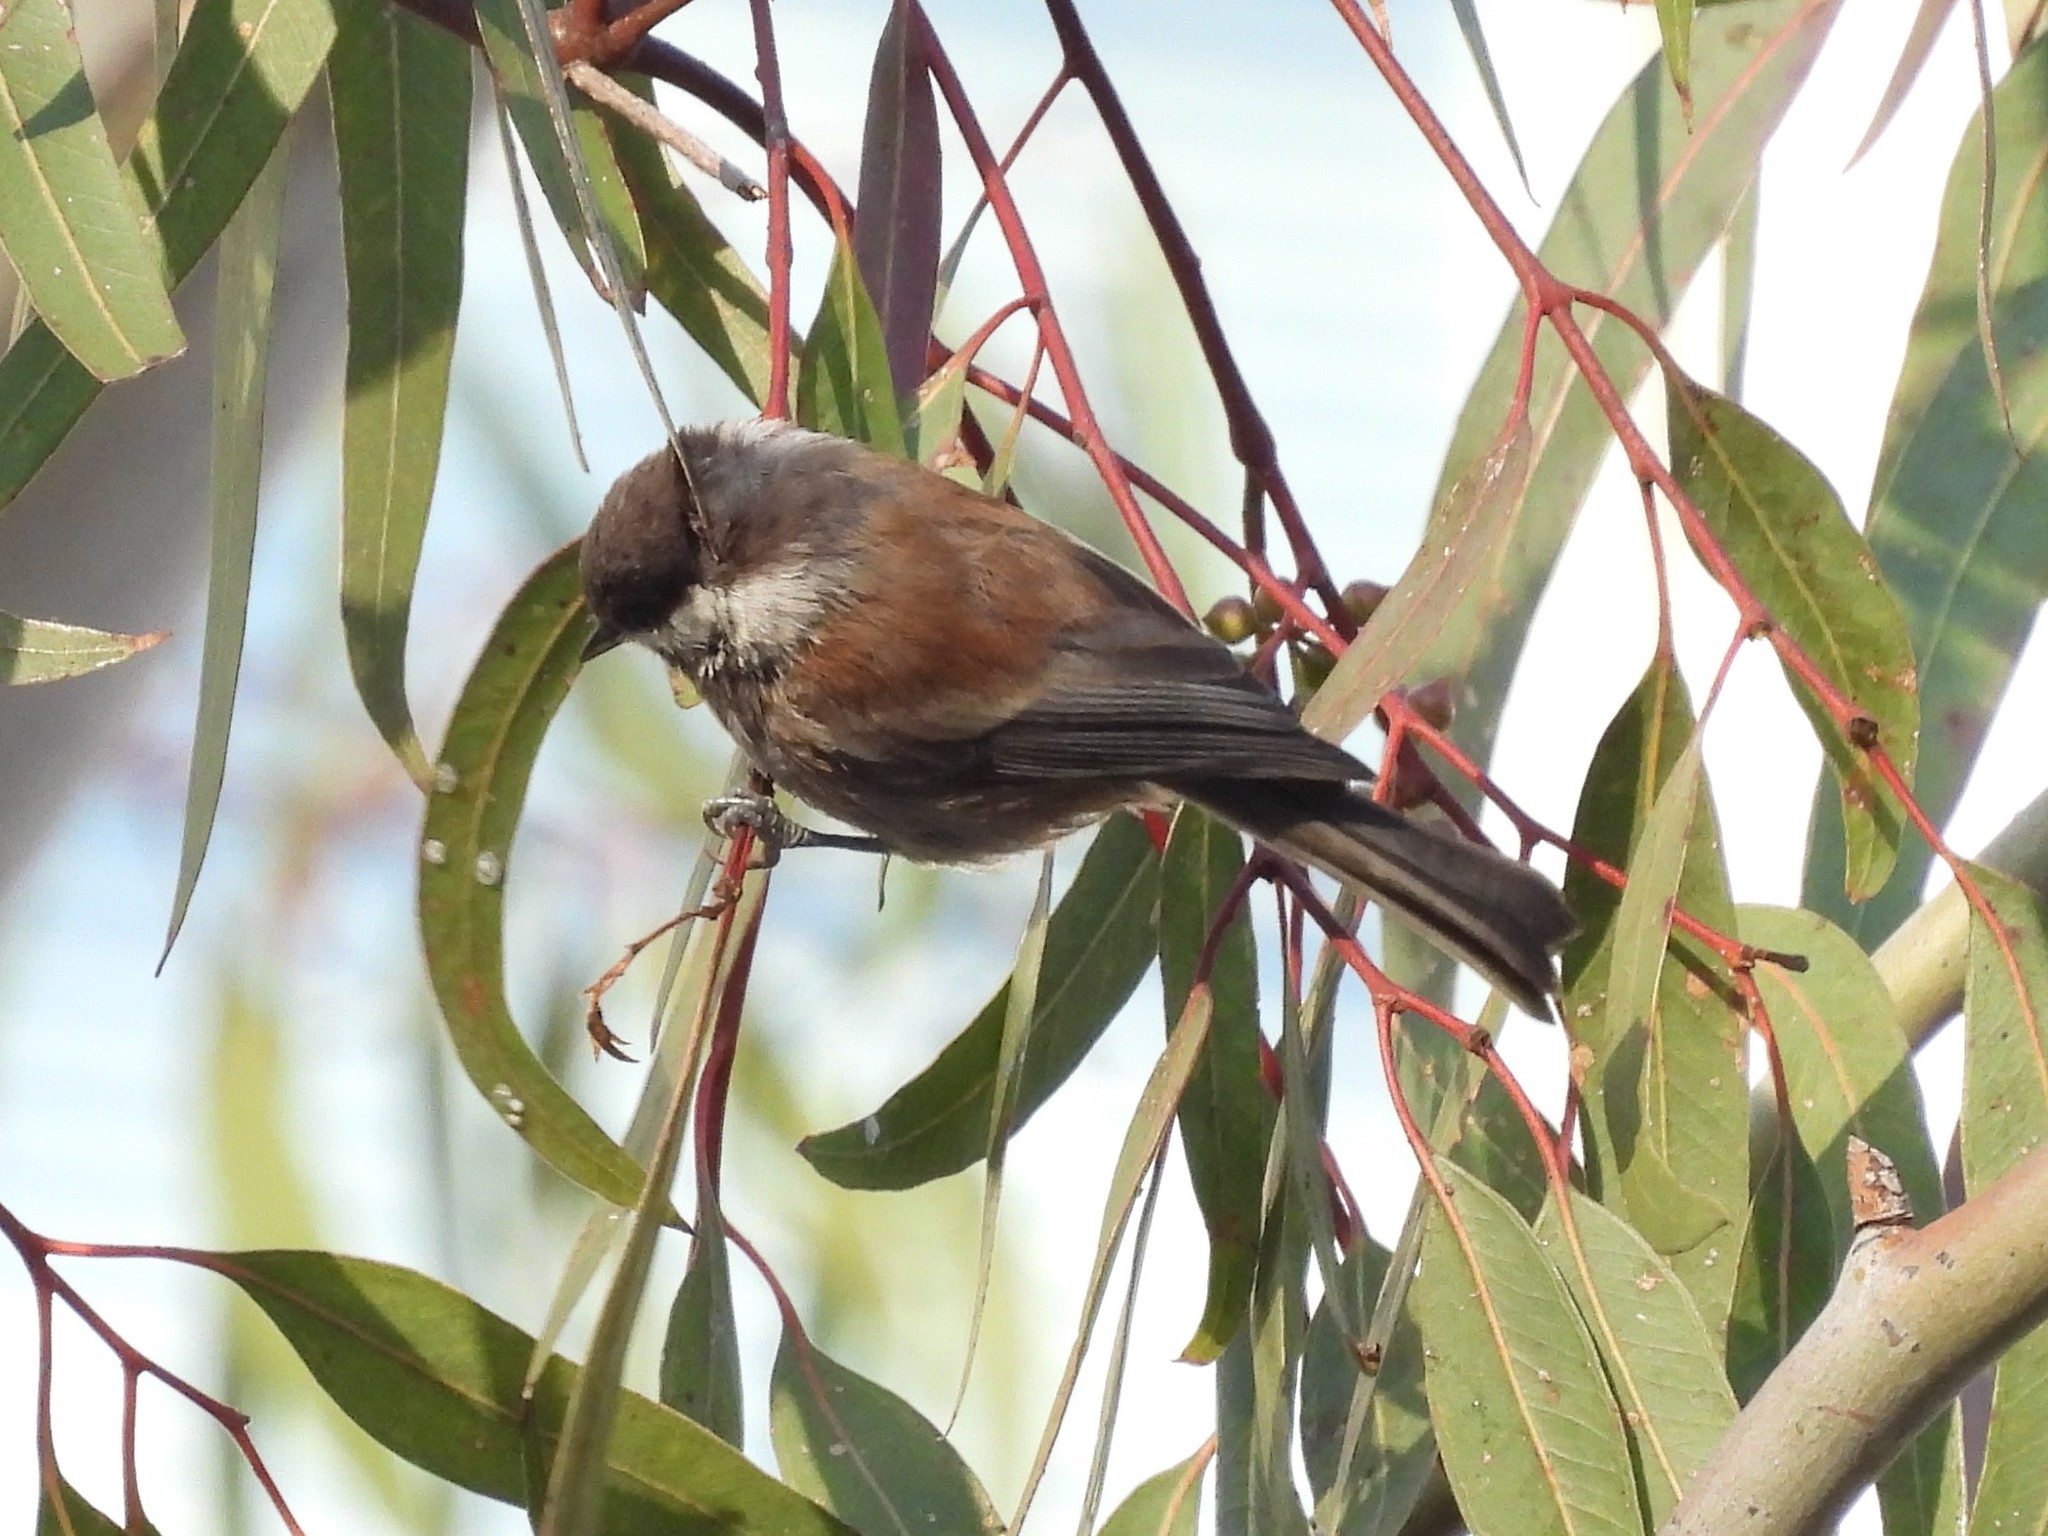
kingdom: Animalia
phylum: Chordata
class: Aves
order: Passeriformes
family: Paridae
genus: Poecile
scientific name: Poecile rufescens
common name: Chestnut-backed chickadee
